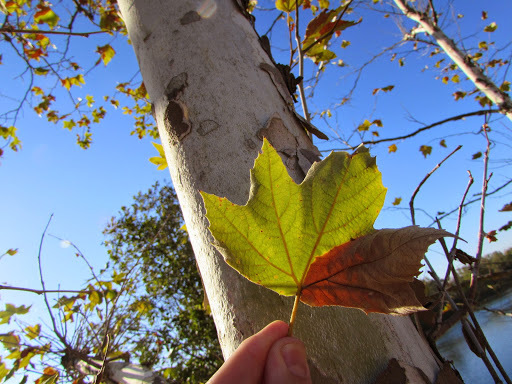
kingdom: Plantae
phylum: Tracheophyta
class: Magnoliopsida
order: Proteales
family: Platanaceae
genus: Platanus
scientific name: Platanus racemosa
